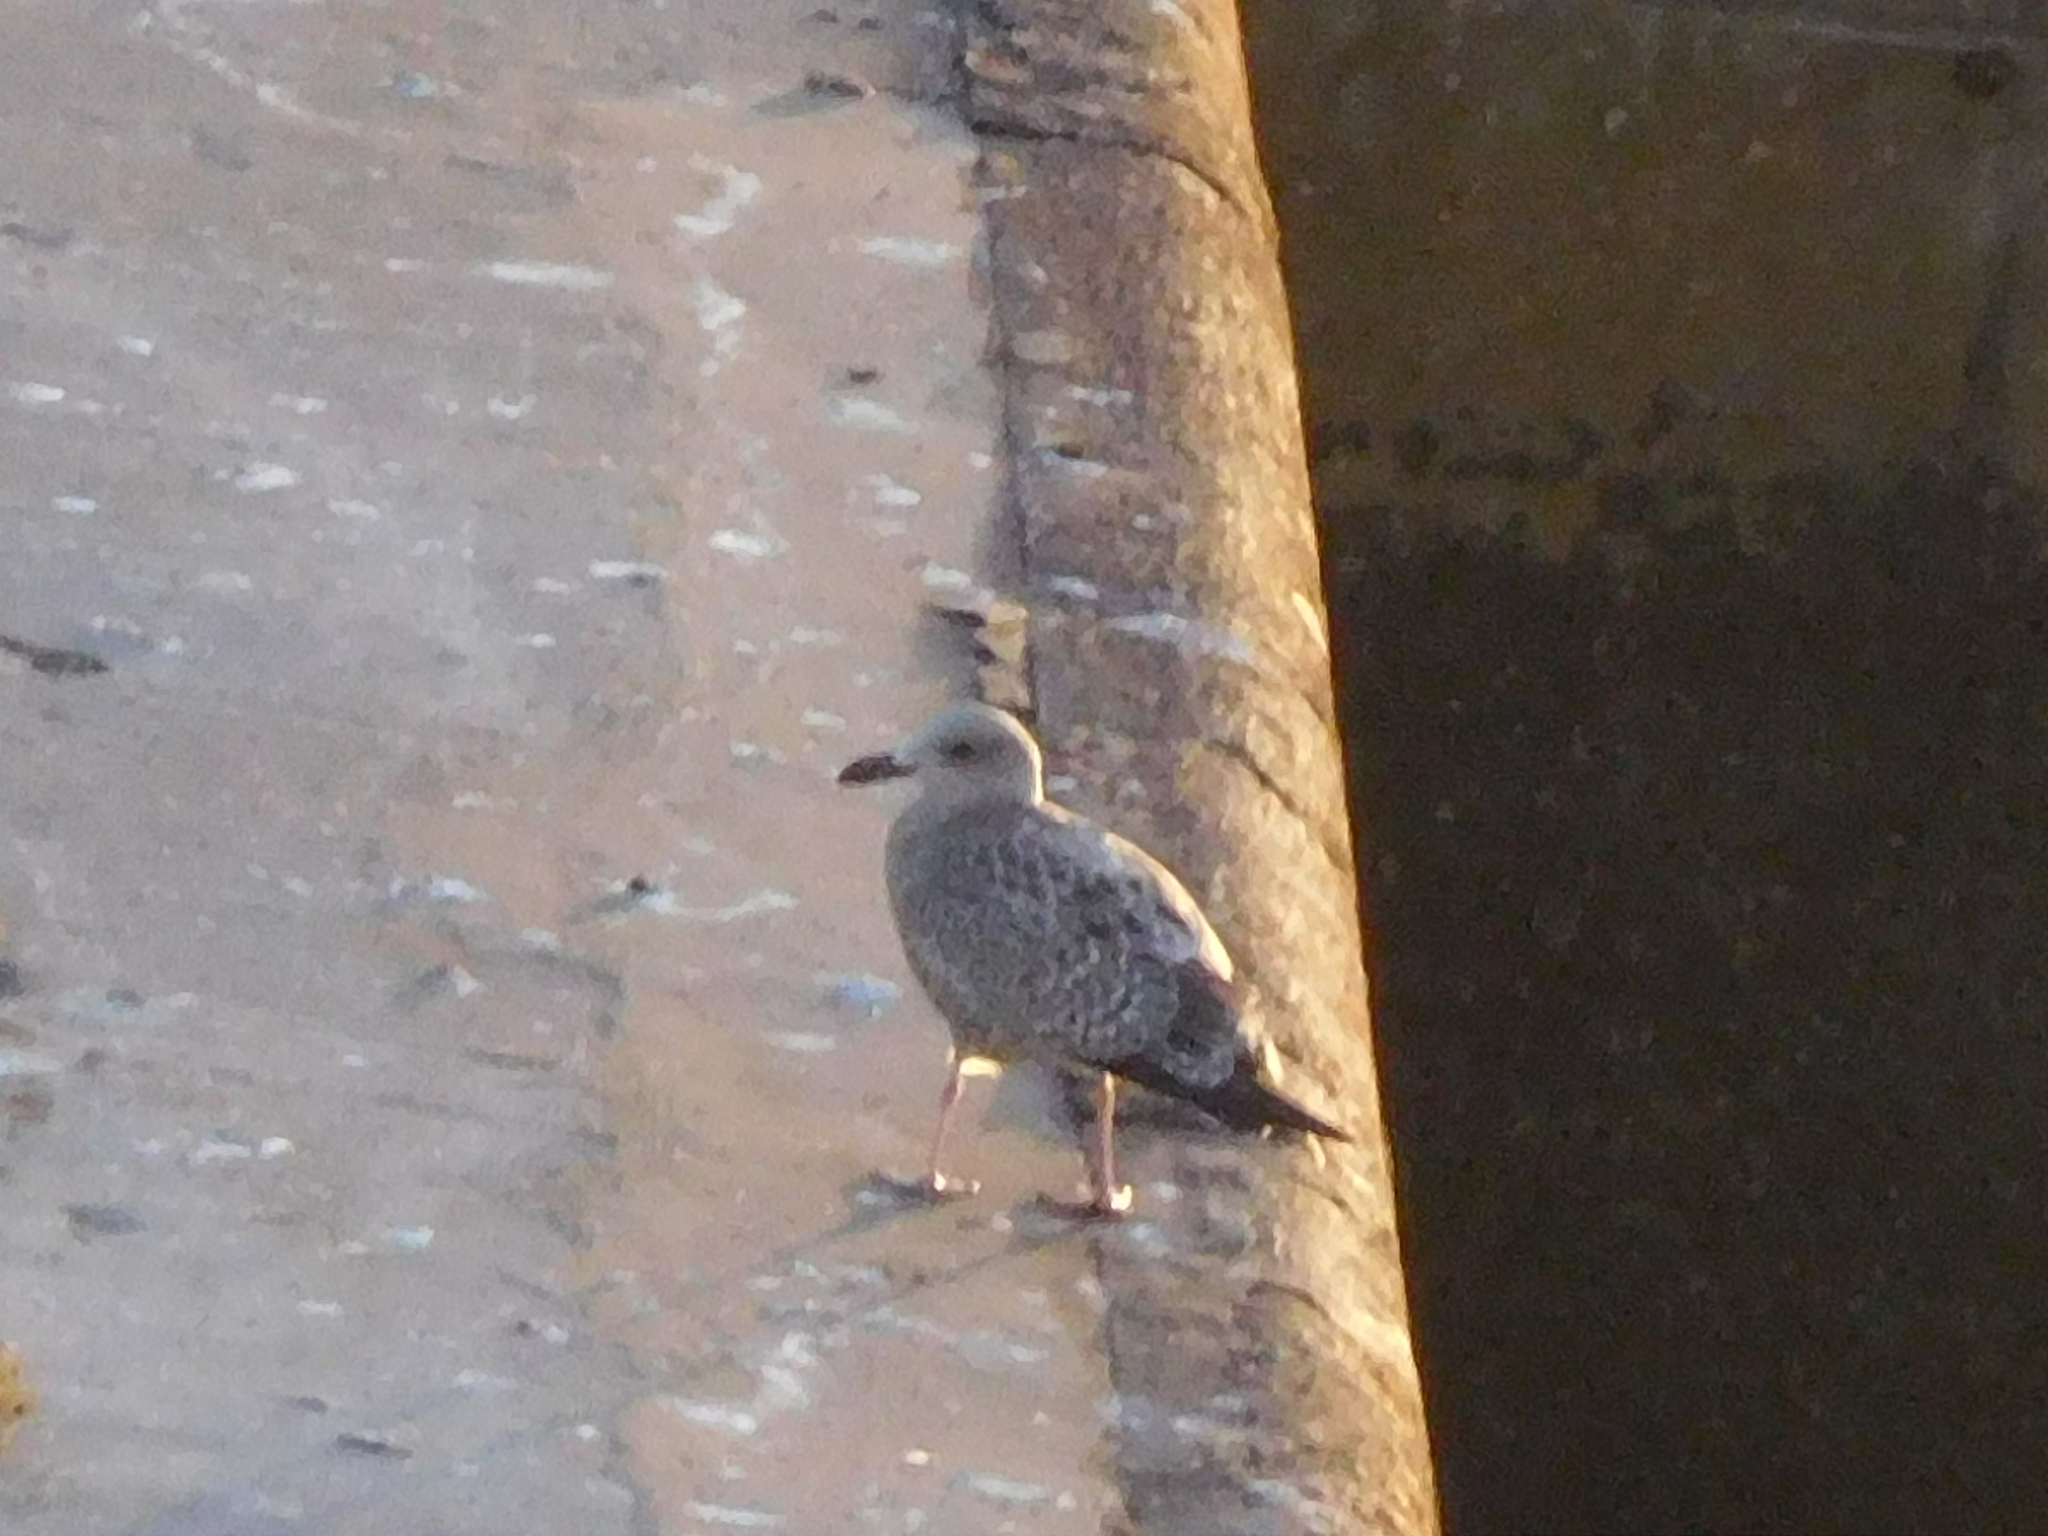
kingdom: Animalia
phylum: Chordata
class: Aves
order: Charadriiformes
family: Laridae
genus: Larus
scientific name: Larus argentatus
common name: Herring gull
